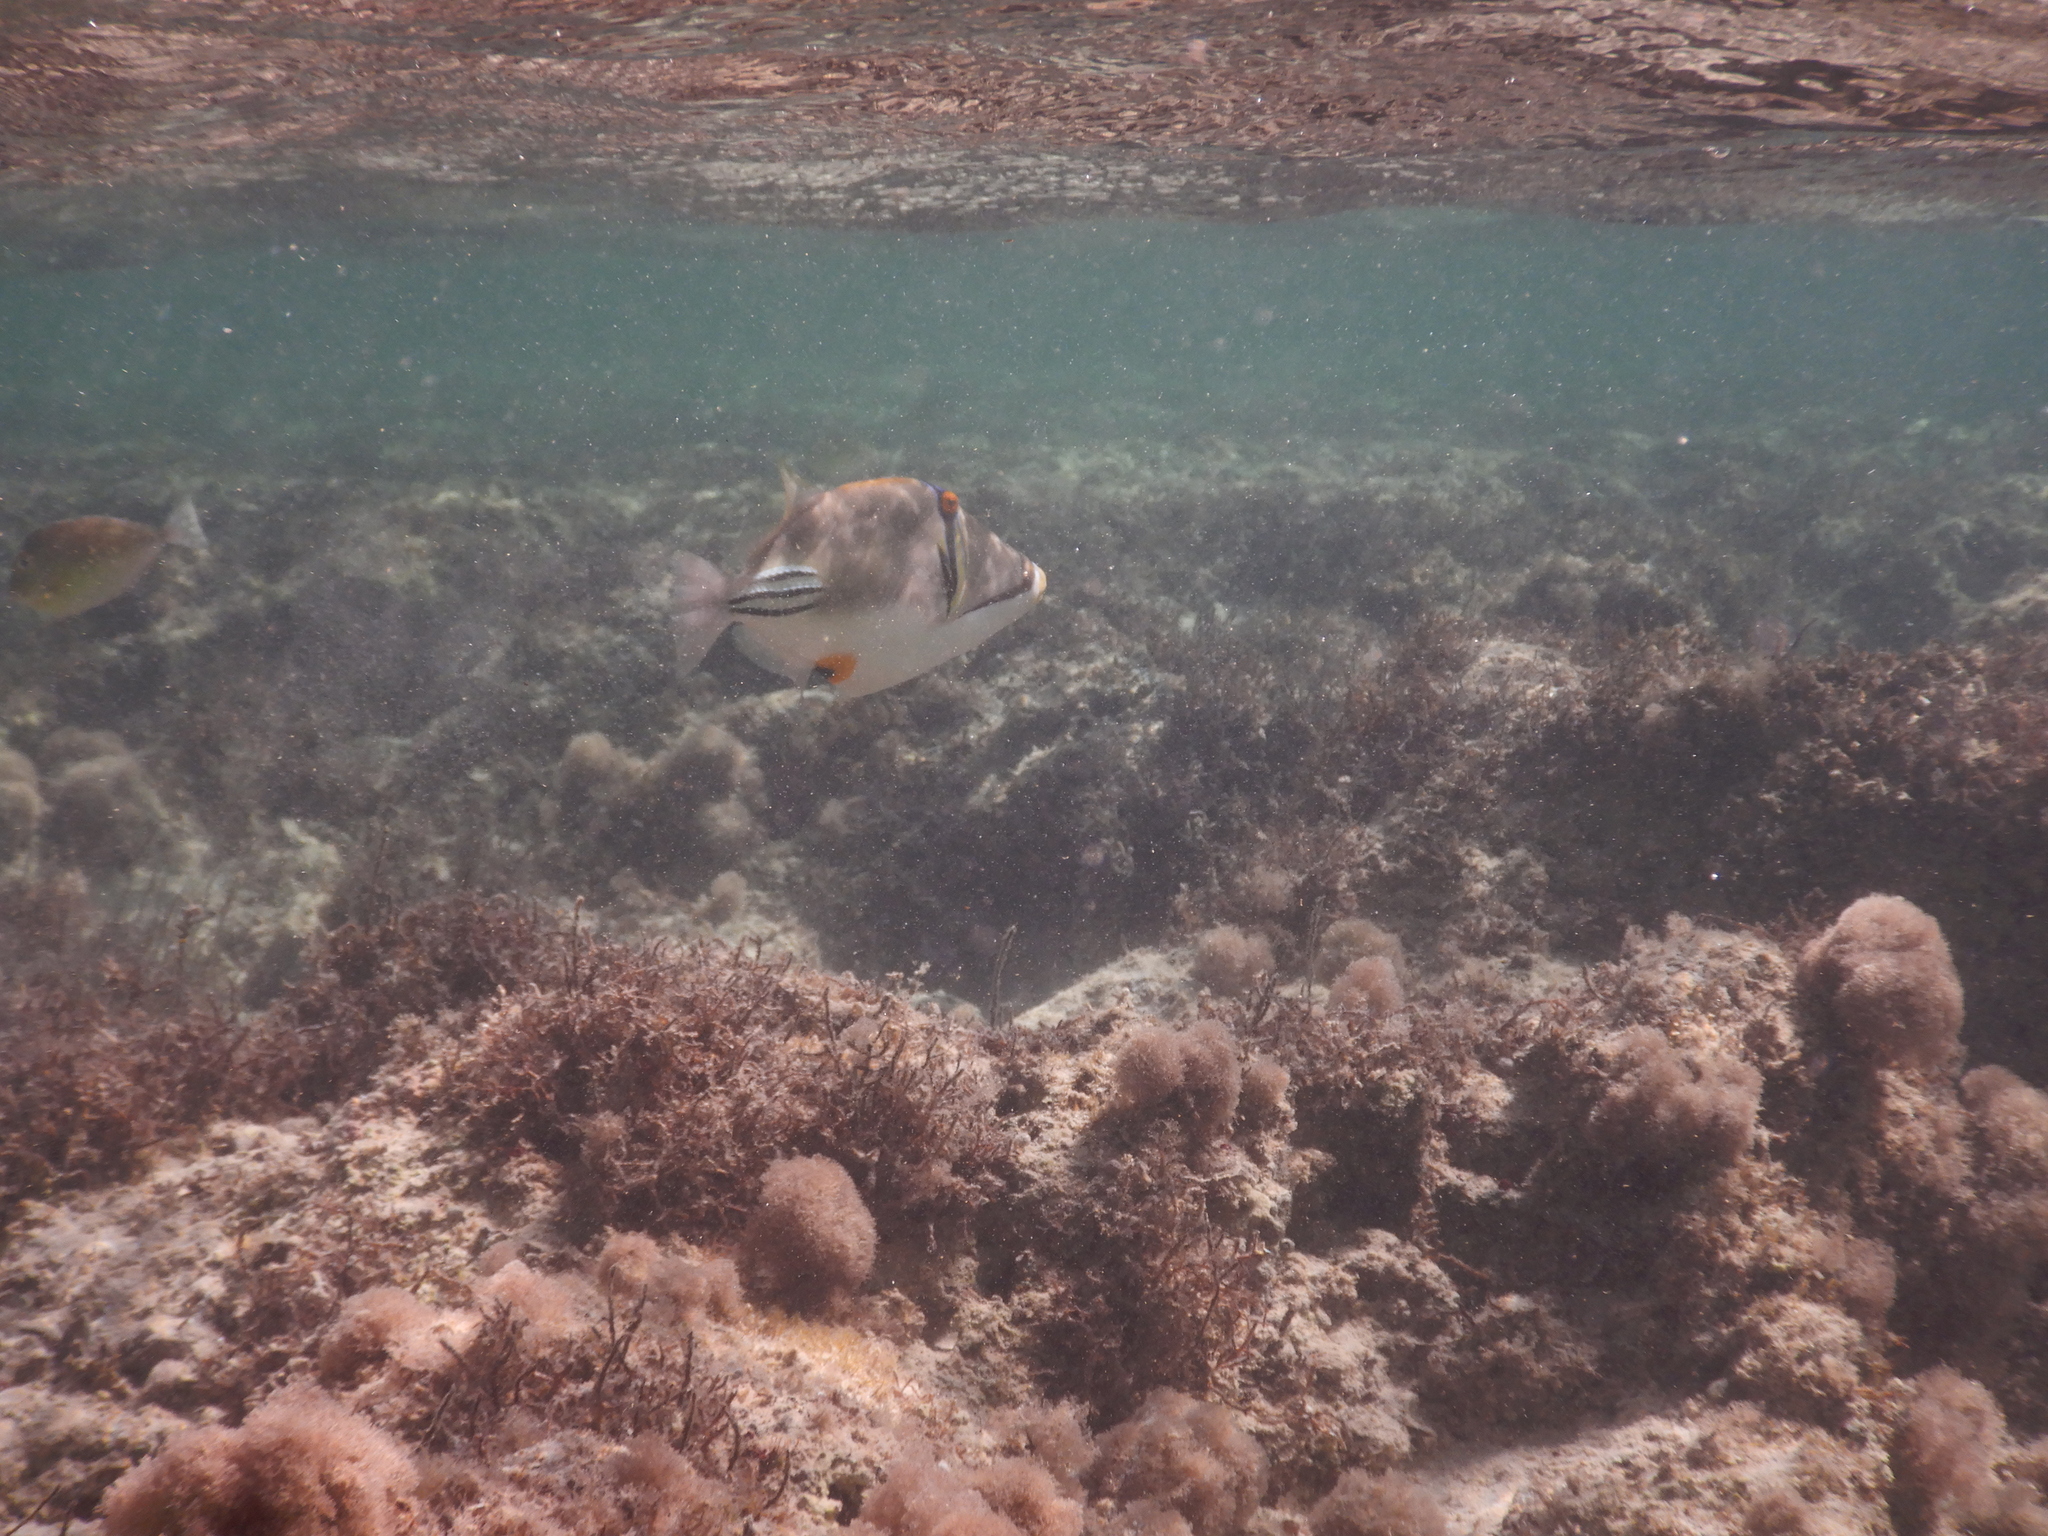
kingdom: Animalia
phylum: Chordata
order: Tetraodontiformes
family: Balistidae
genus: Rhinecanthus
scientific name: Rhinecanthus assasi
